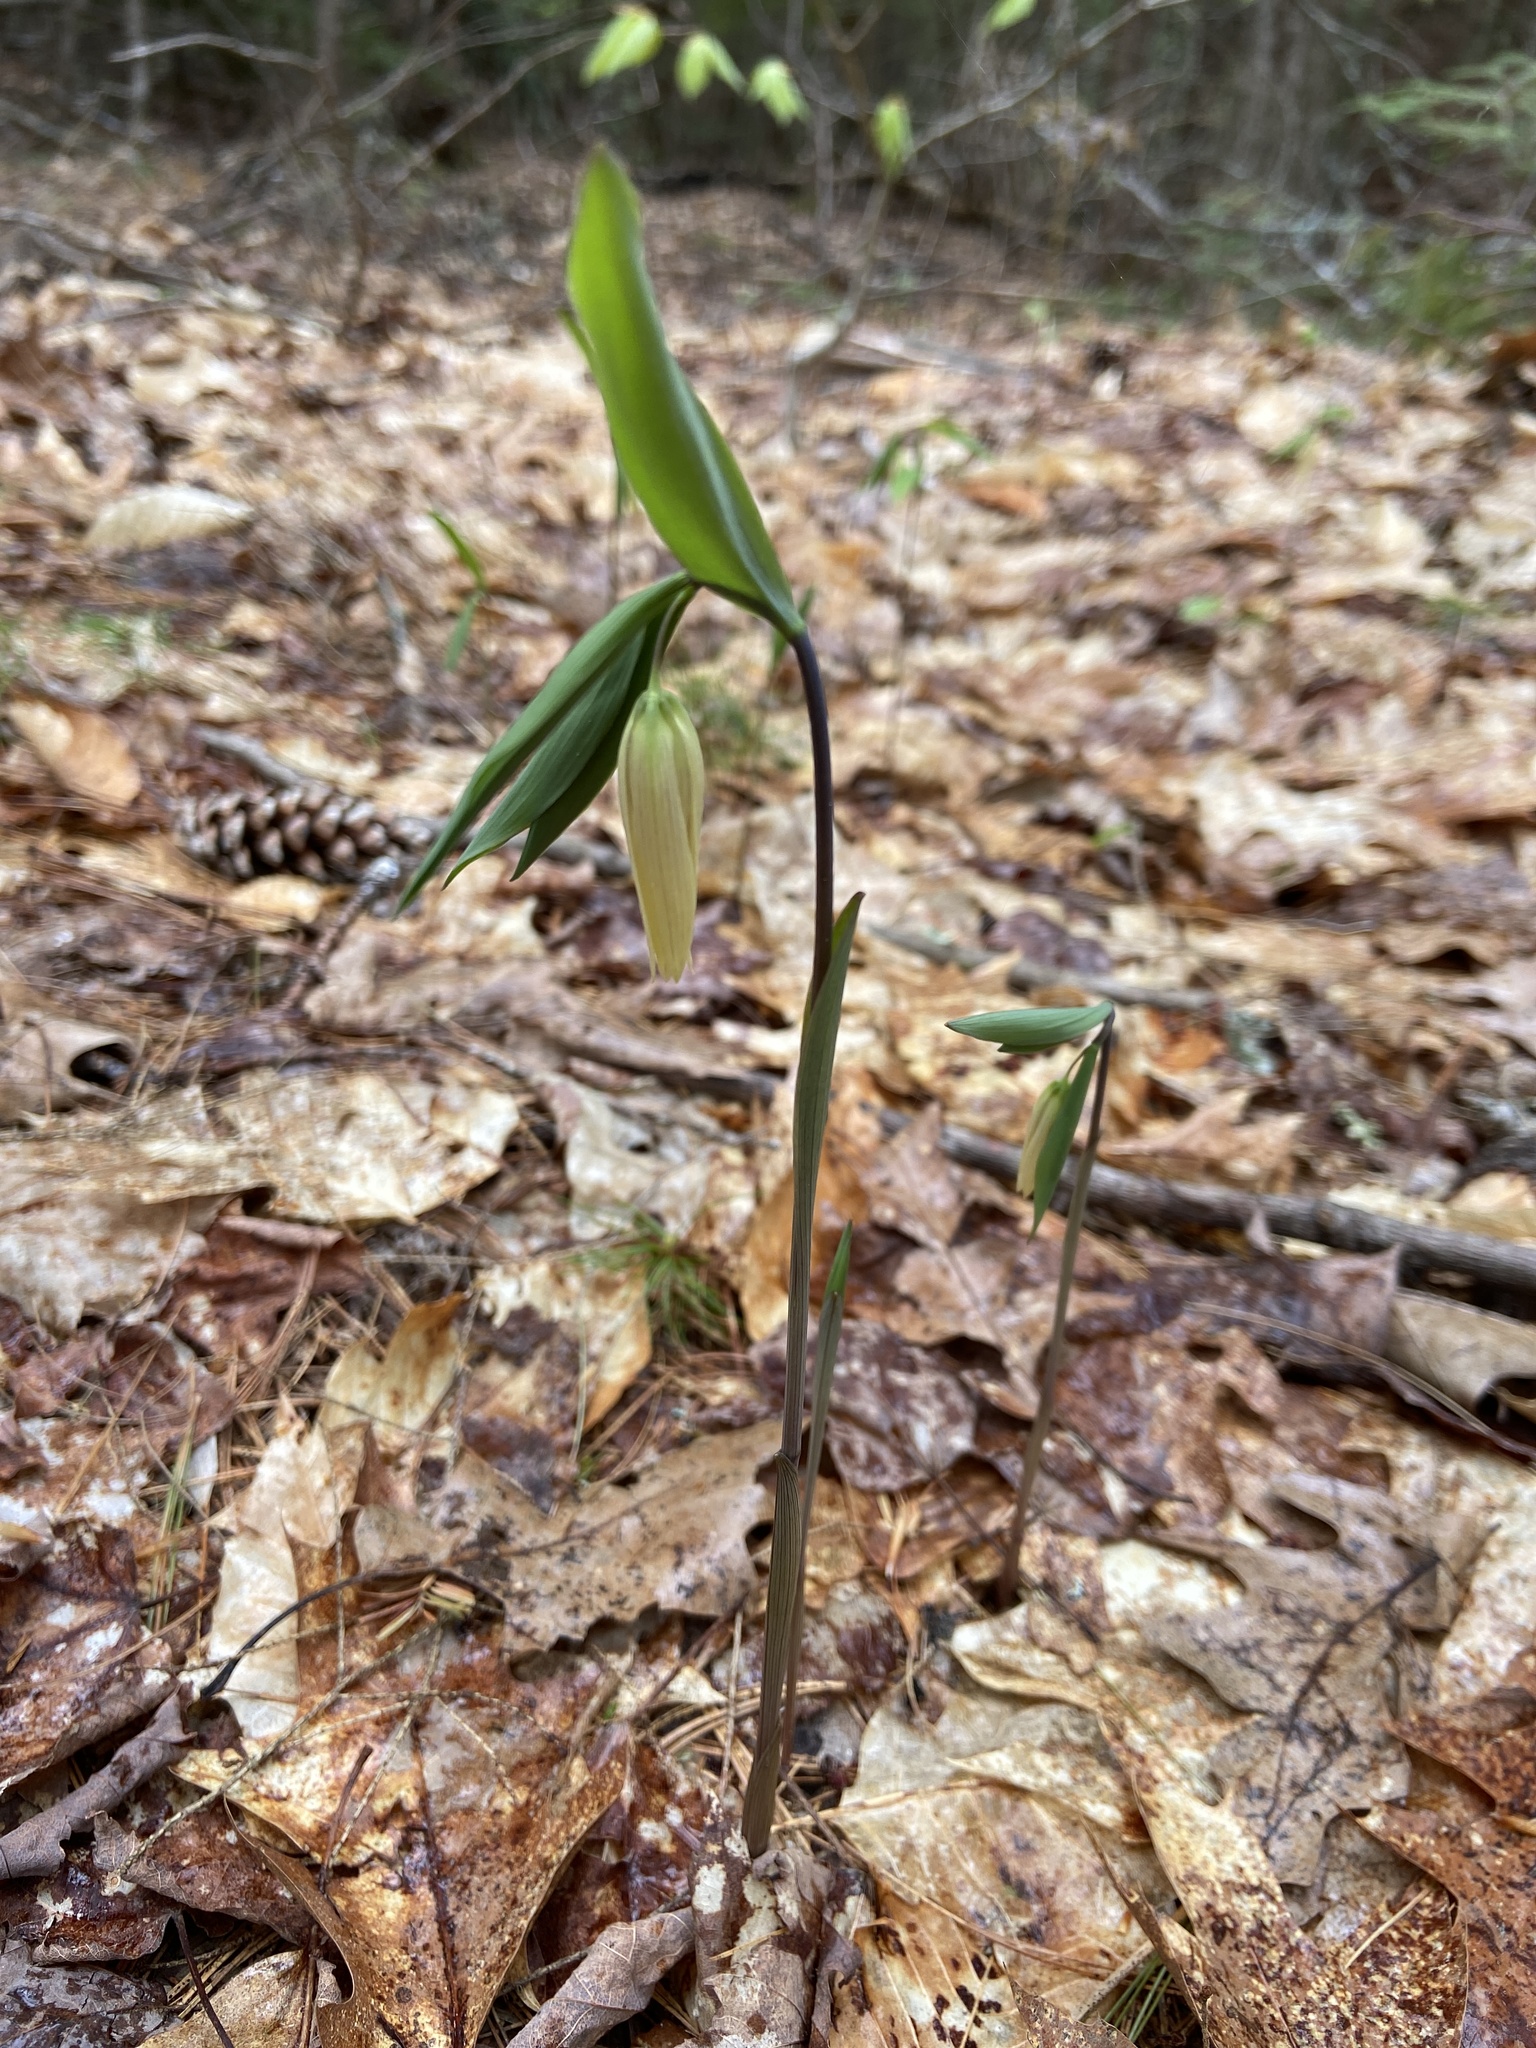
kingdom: Plantae
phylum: Tracheophyta
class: Liliopsida
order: Liliales
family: Colchicaceae
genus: Uvularia
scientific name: Uvularia sessilifolia
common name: Straw-lily
